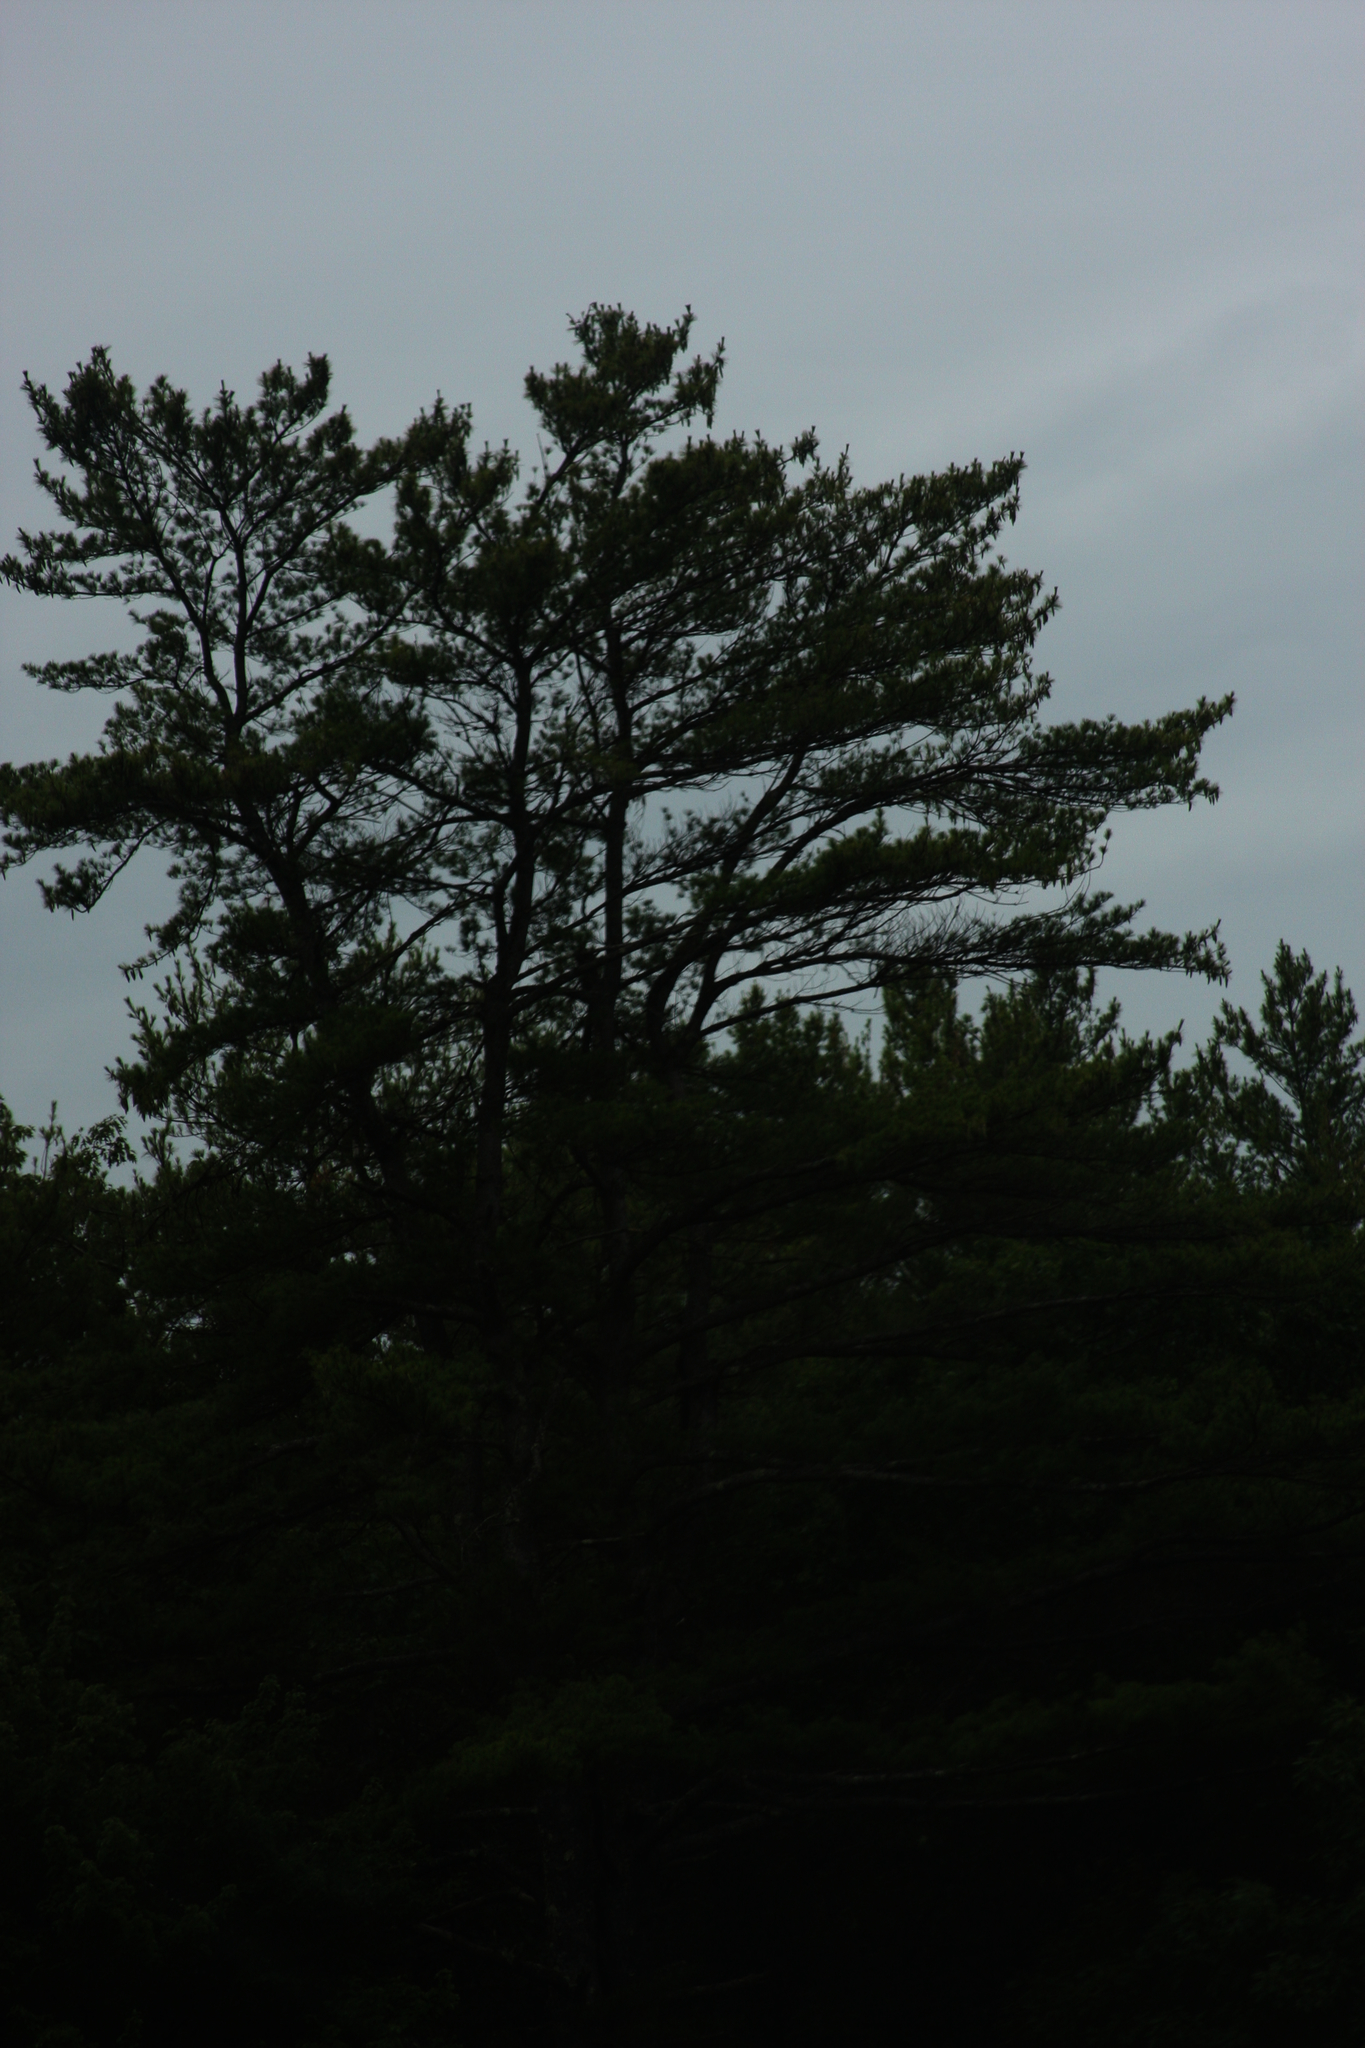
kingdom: Plantae
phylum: Tracheophyta
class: Pinopsida
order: Pinales
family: Pinaceae
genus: Pinus
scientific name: Pinus strobus
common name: Weymouth pine
